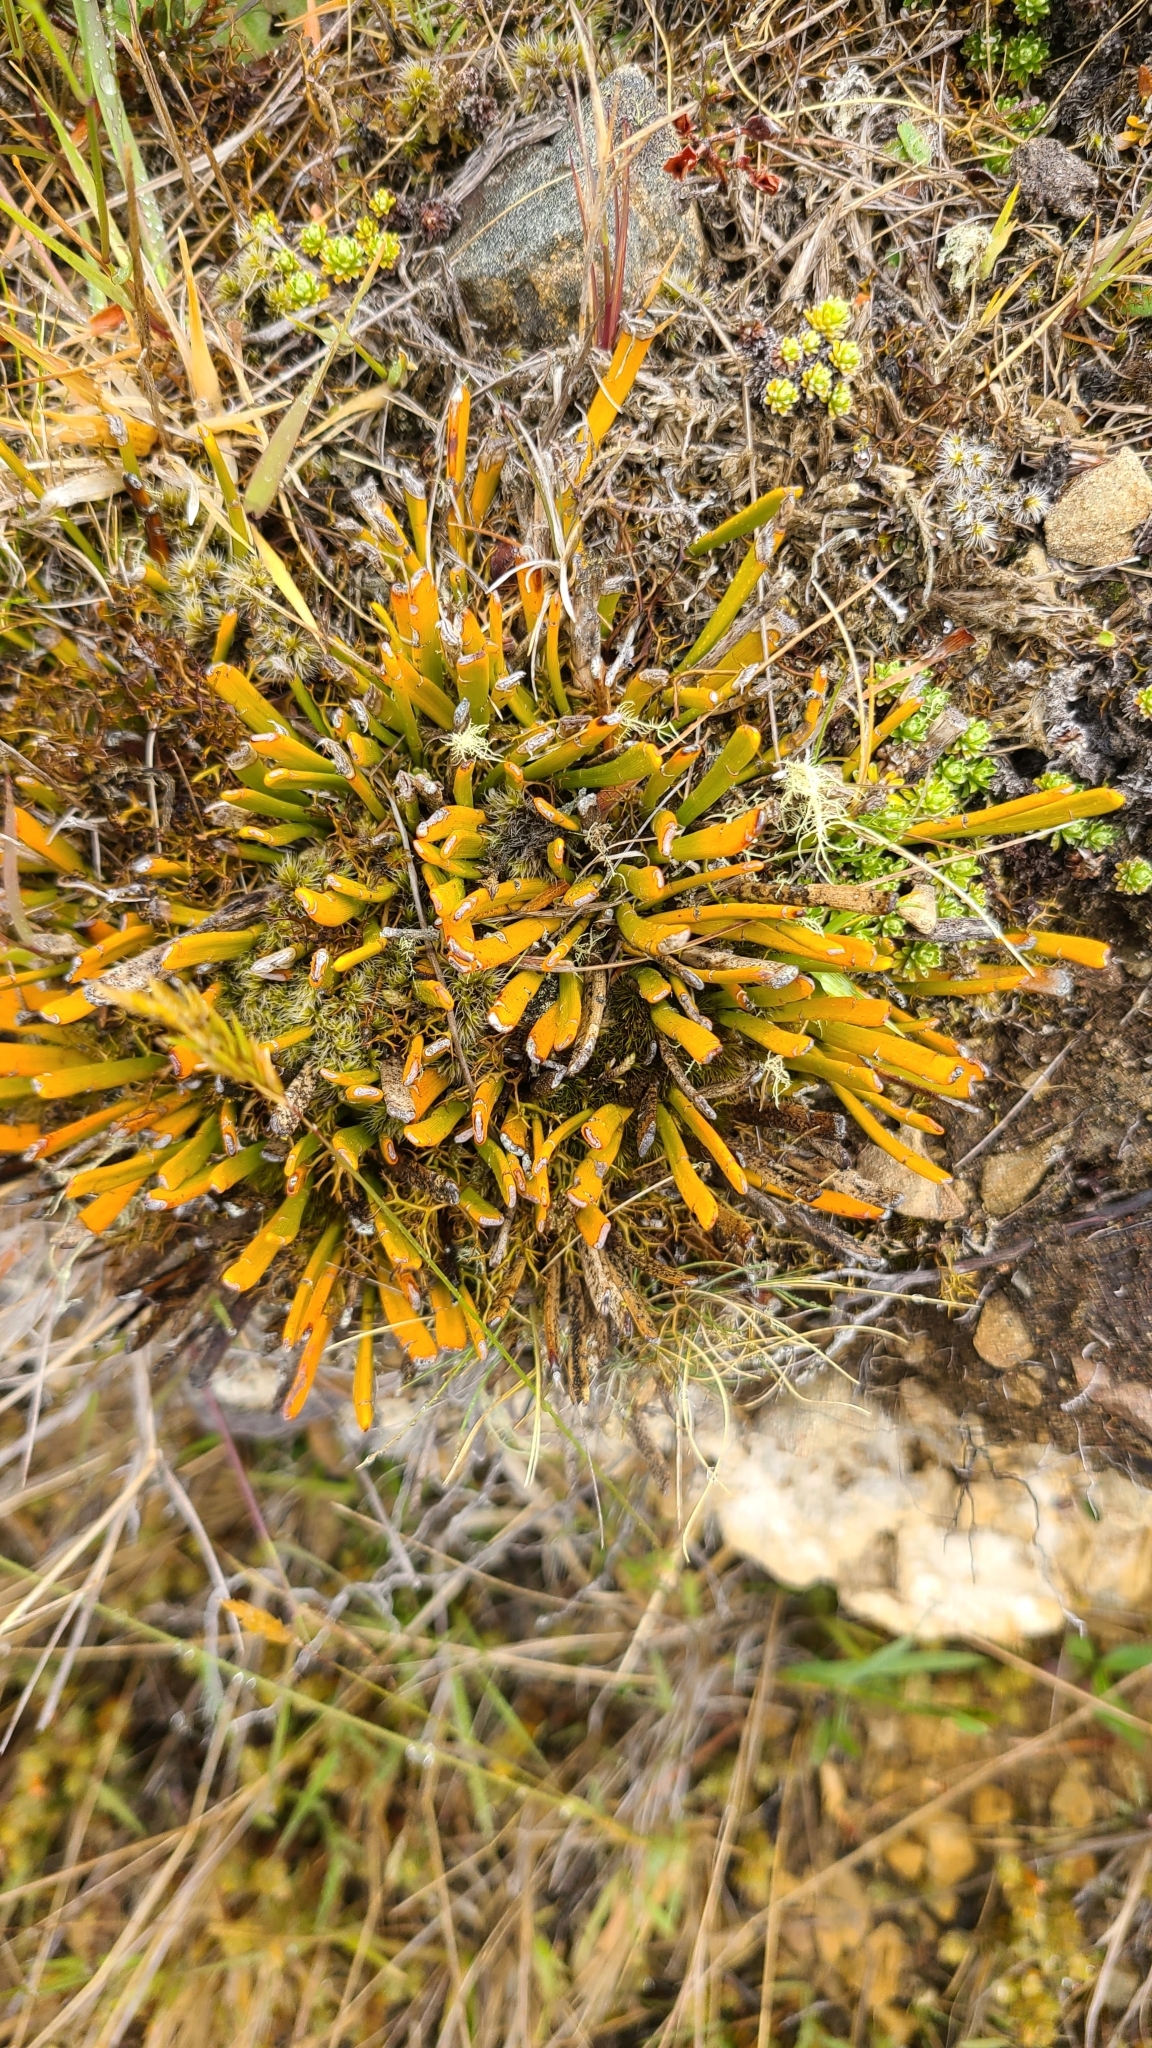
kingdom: Plantae
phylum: Tracheophyta
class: Magnoliopsida
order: Fabales
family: Fabaceae
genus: Carmichaelia
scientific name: Carmichaelia monroi
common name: Stout dwarf broom
